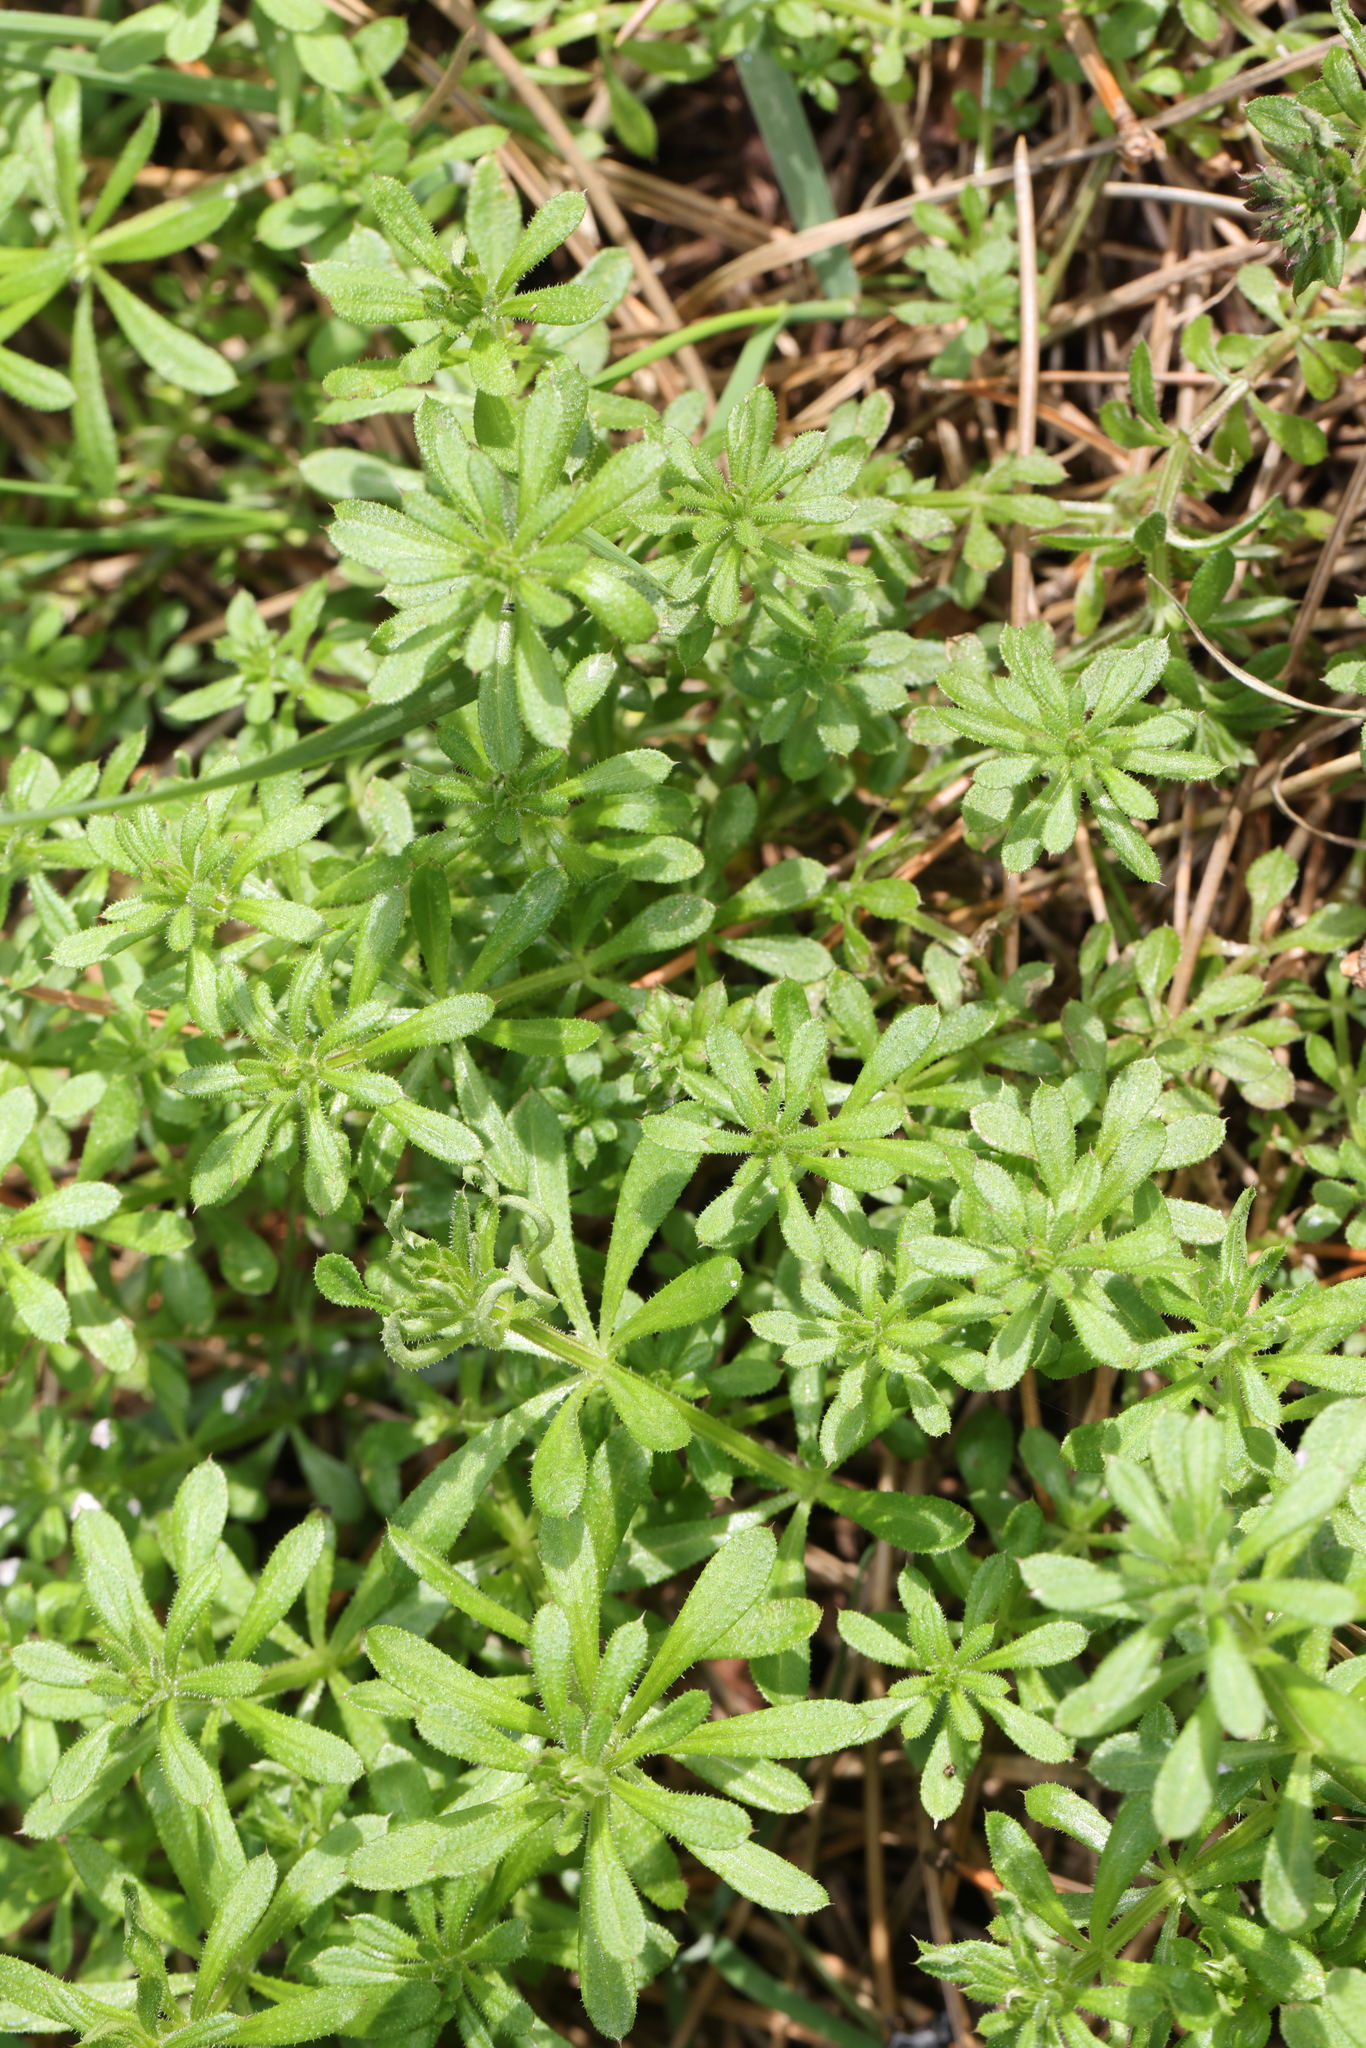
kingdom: Plantae
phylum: Tracheophyta
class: Magnoliopsida
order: Gentianales
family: Rubiaceae
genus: Galium
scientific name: Galium aparine
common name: Cleavers
